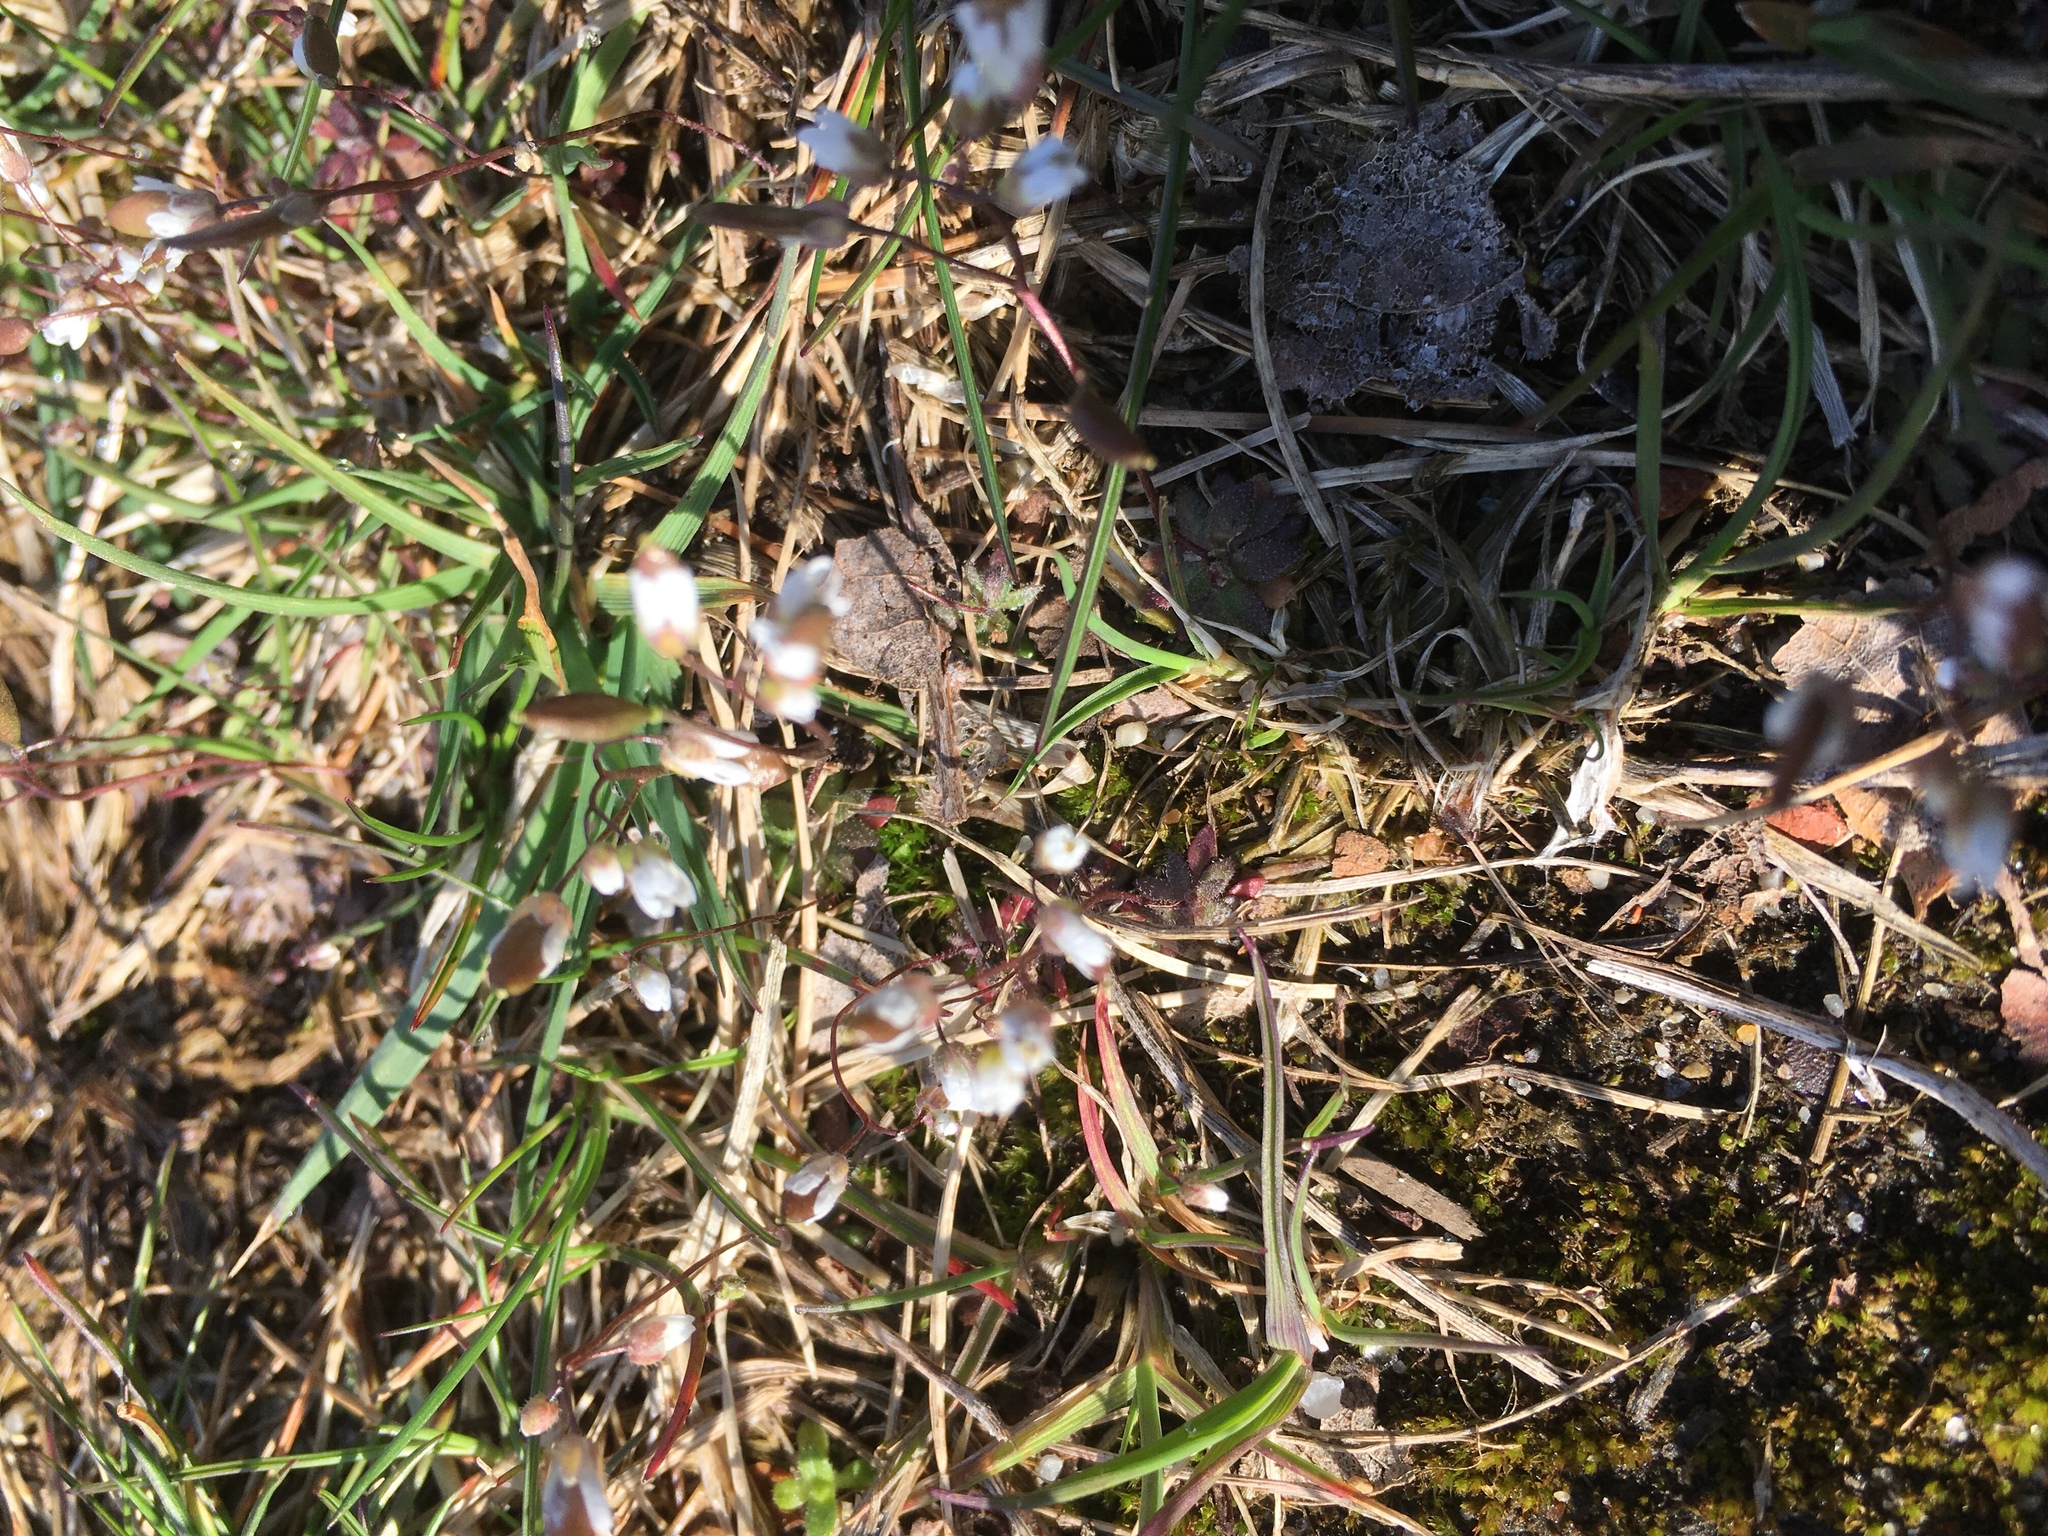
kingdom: Plantae
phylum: Tracheophyta
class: Magnoliopsida
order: Brassicales
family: Brassicaceae
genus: Draba
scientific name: Draba verna
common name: Spring draba
